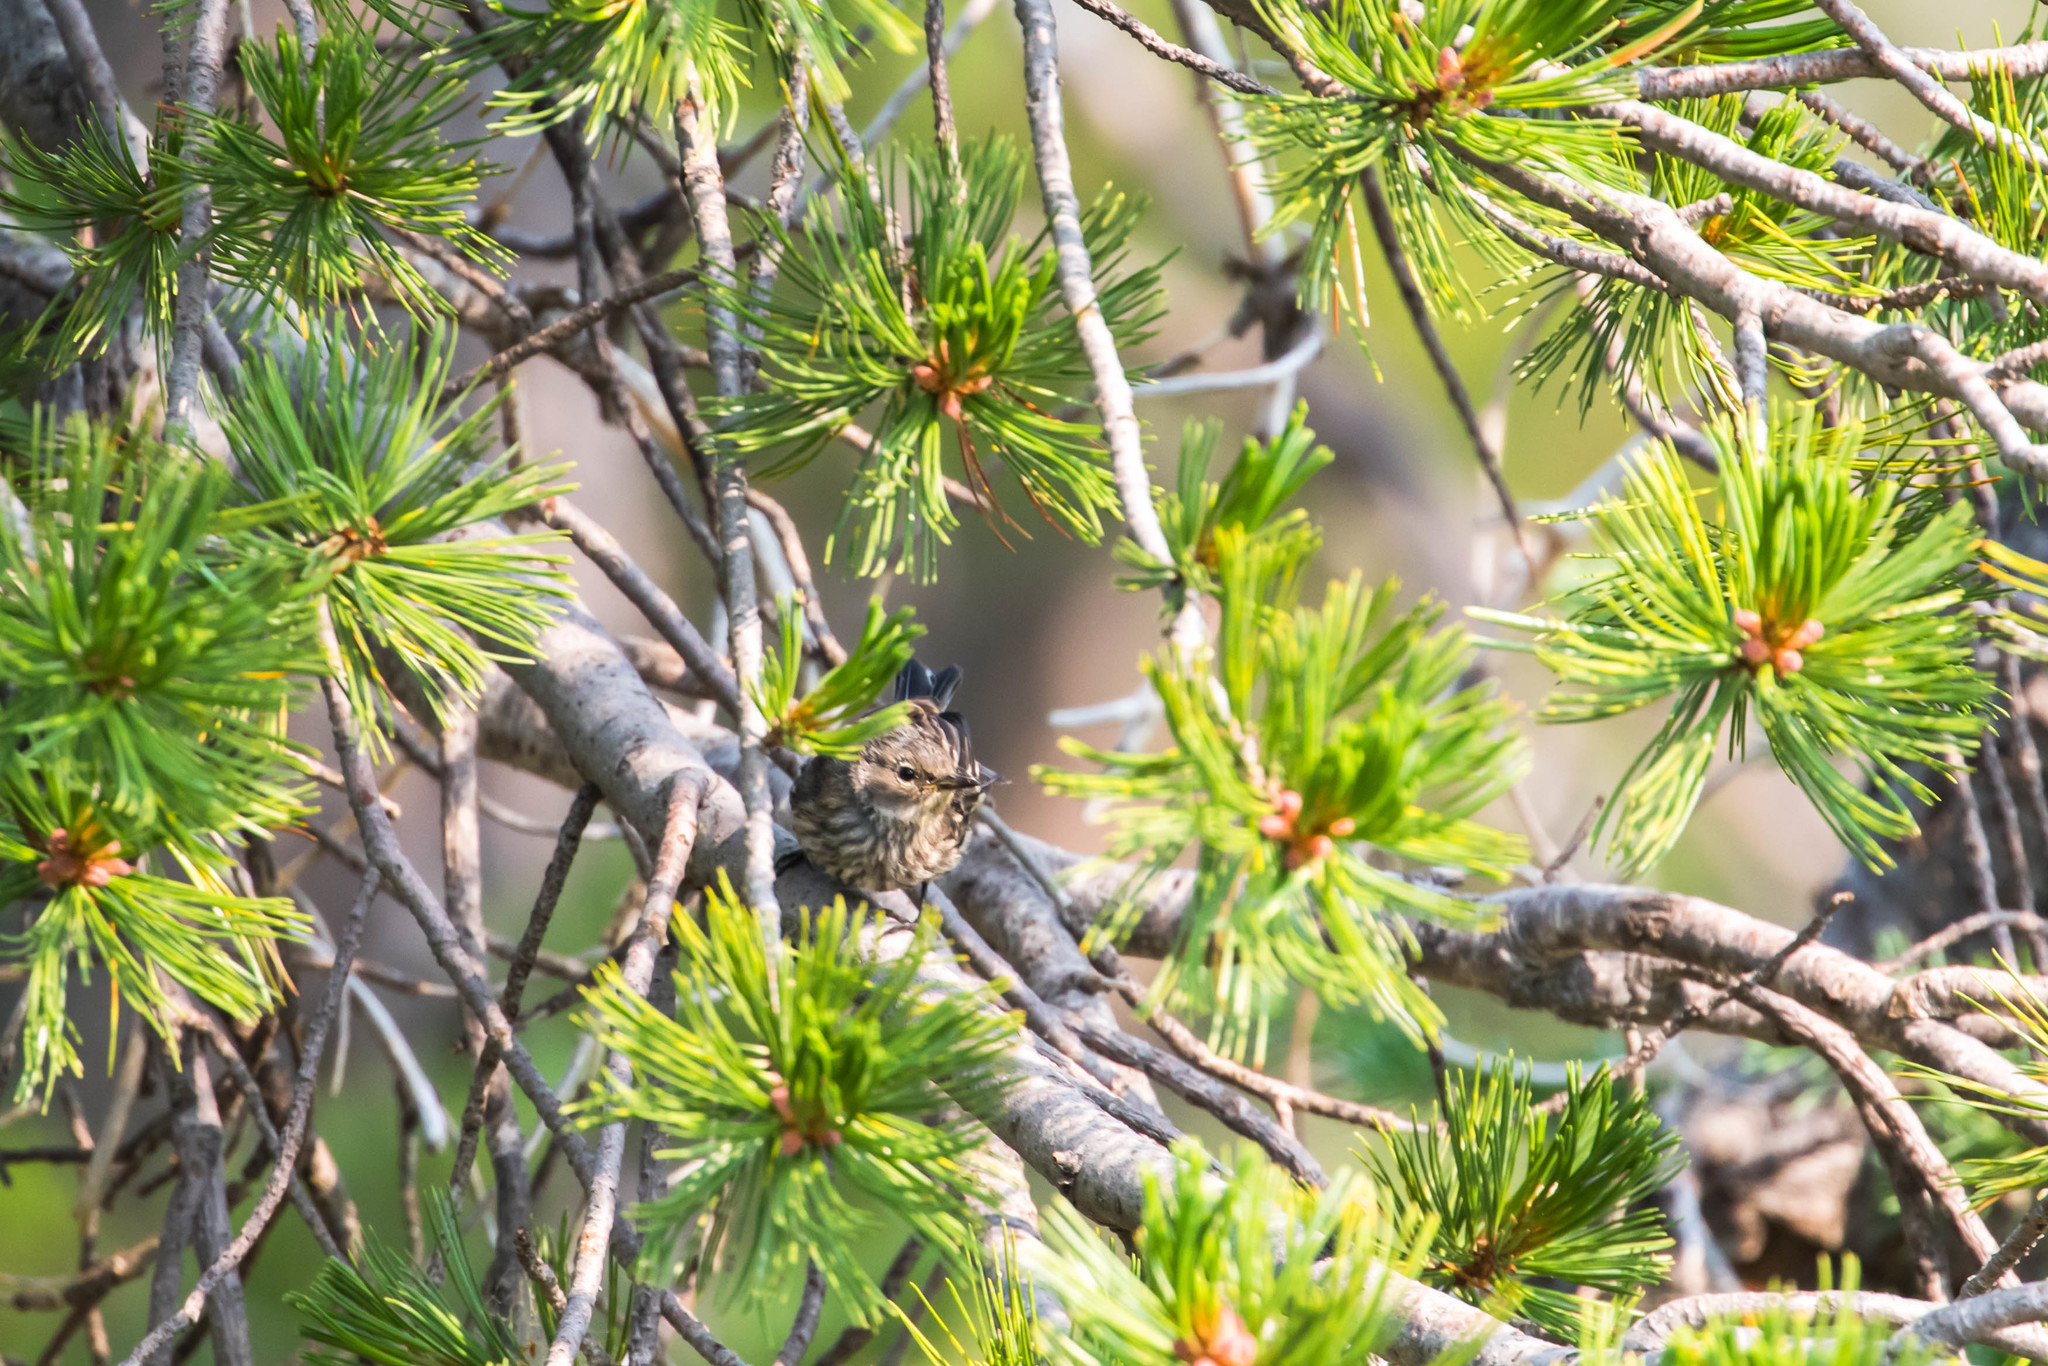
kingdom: Animalia
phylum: Chordata
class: Aves
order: Passeriformes
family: Parulidae
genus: Setophaga
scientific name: Setophaga coronata
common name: Myrtle warbler
